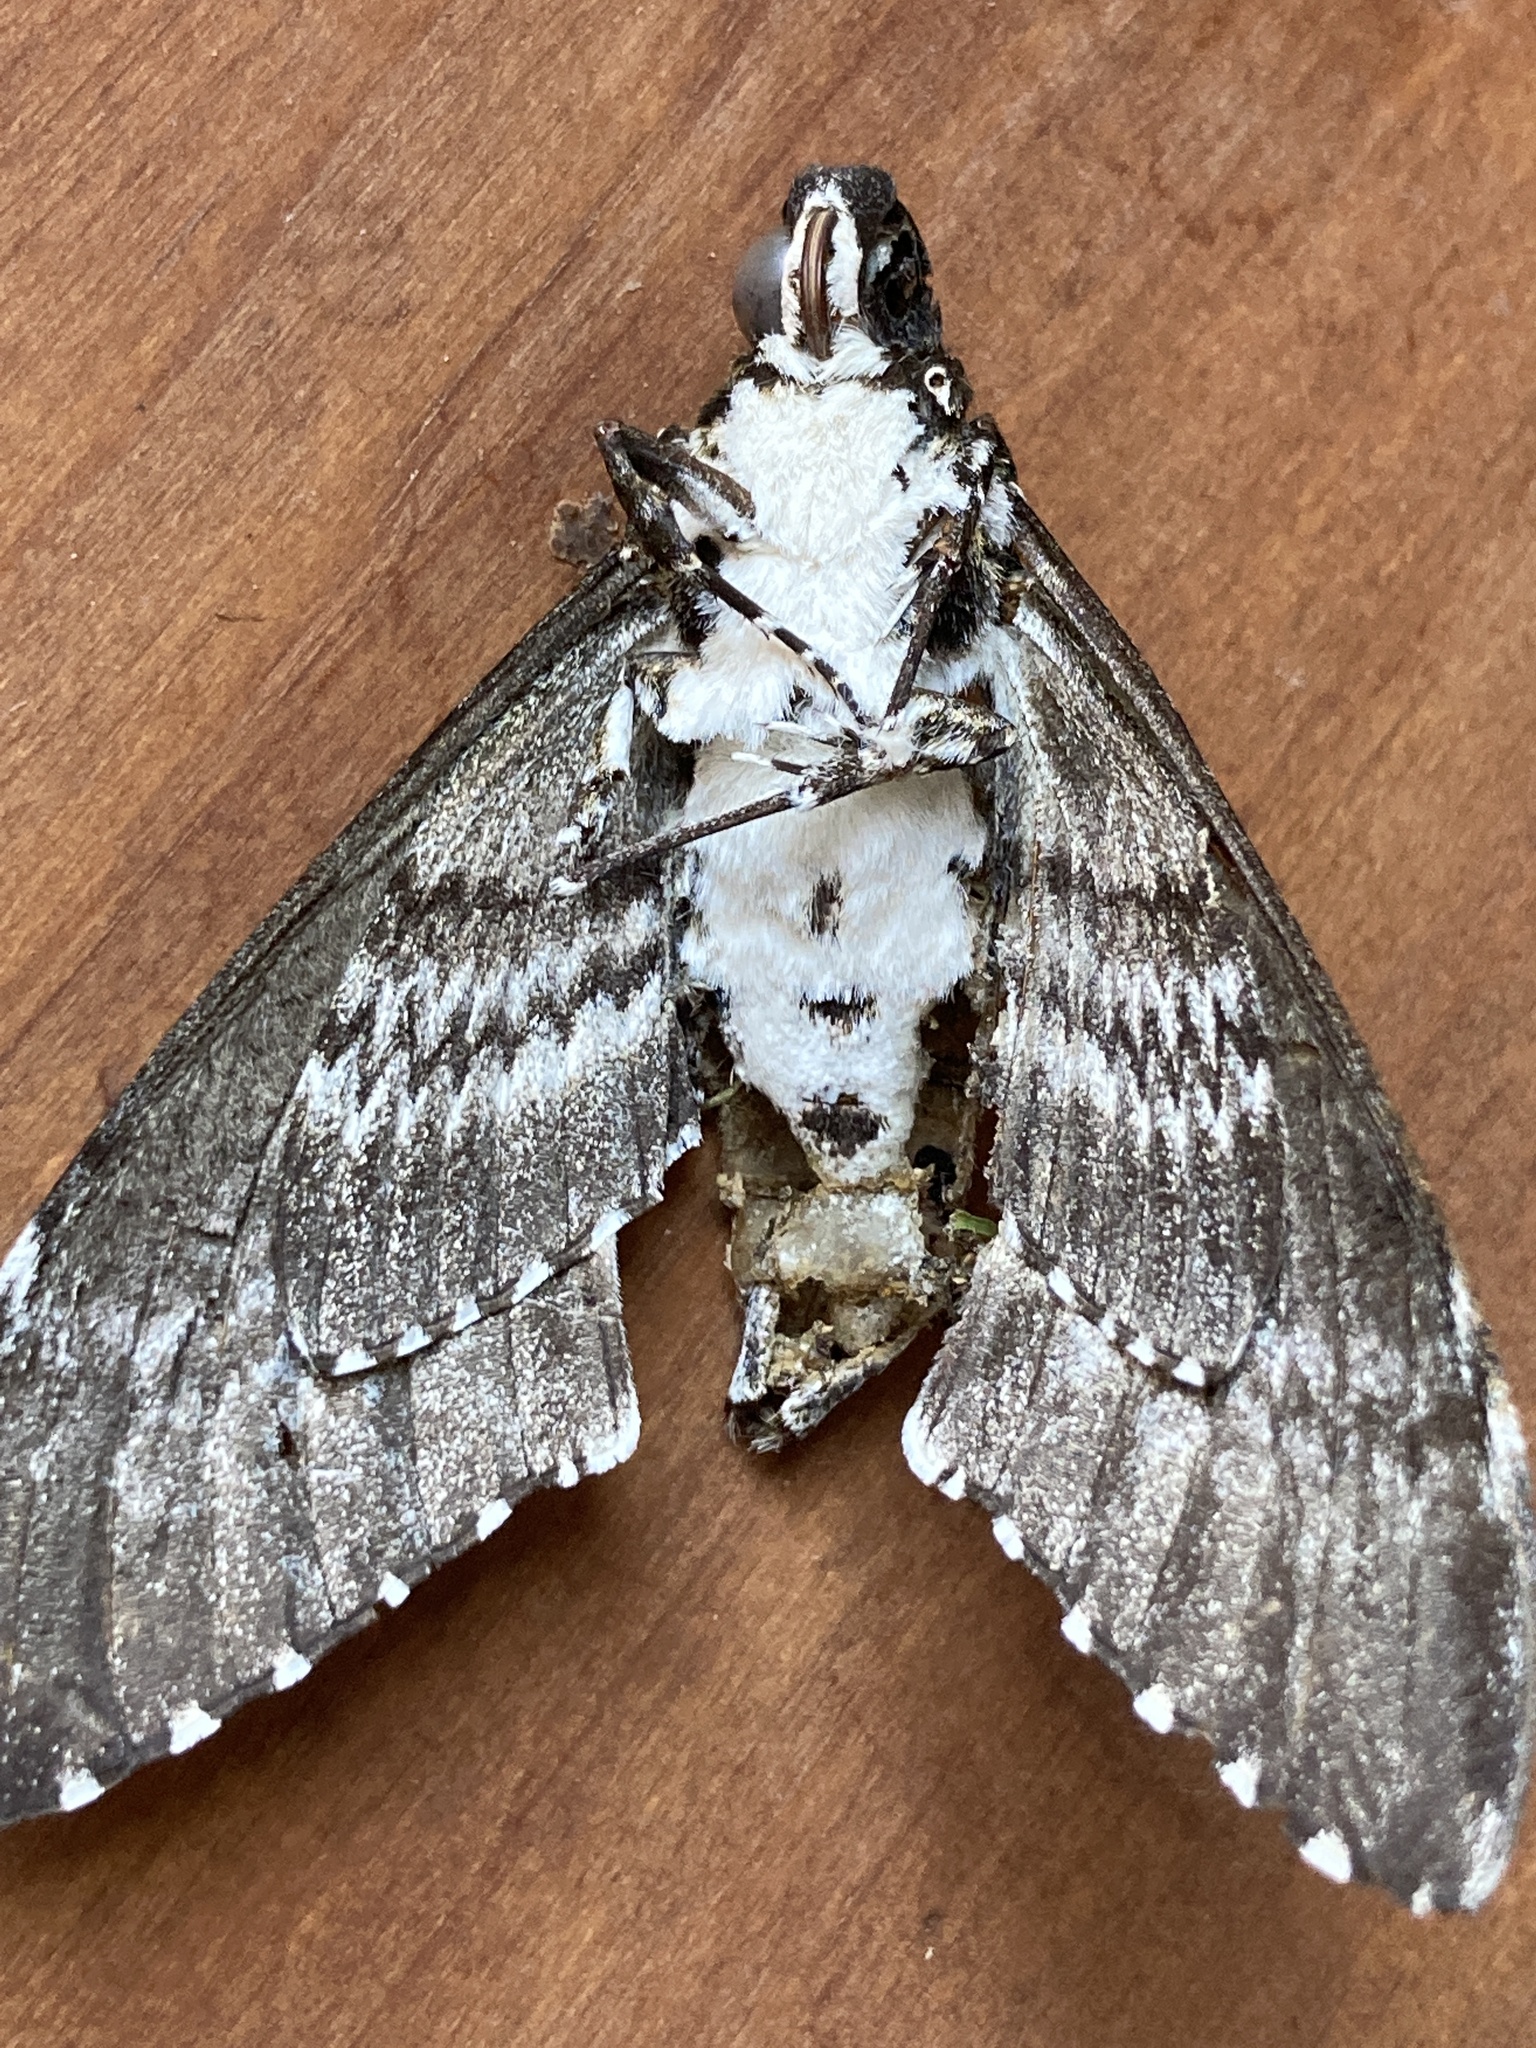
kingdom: Animalia
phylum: Arthropoda
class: Insecta
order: Lepidoptera
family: Sphingidae
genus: Manduca
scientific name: Manduca rustica
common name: Rustic sphinx
